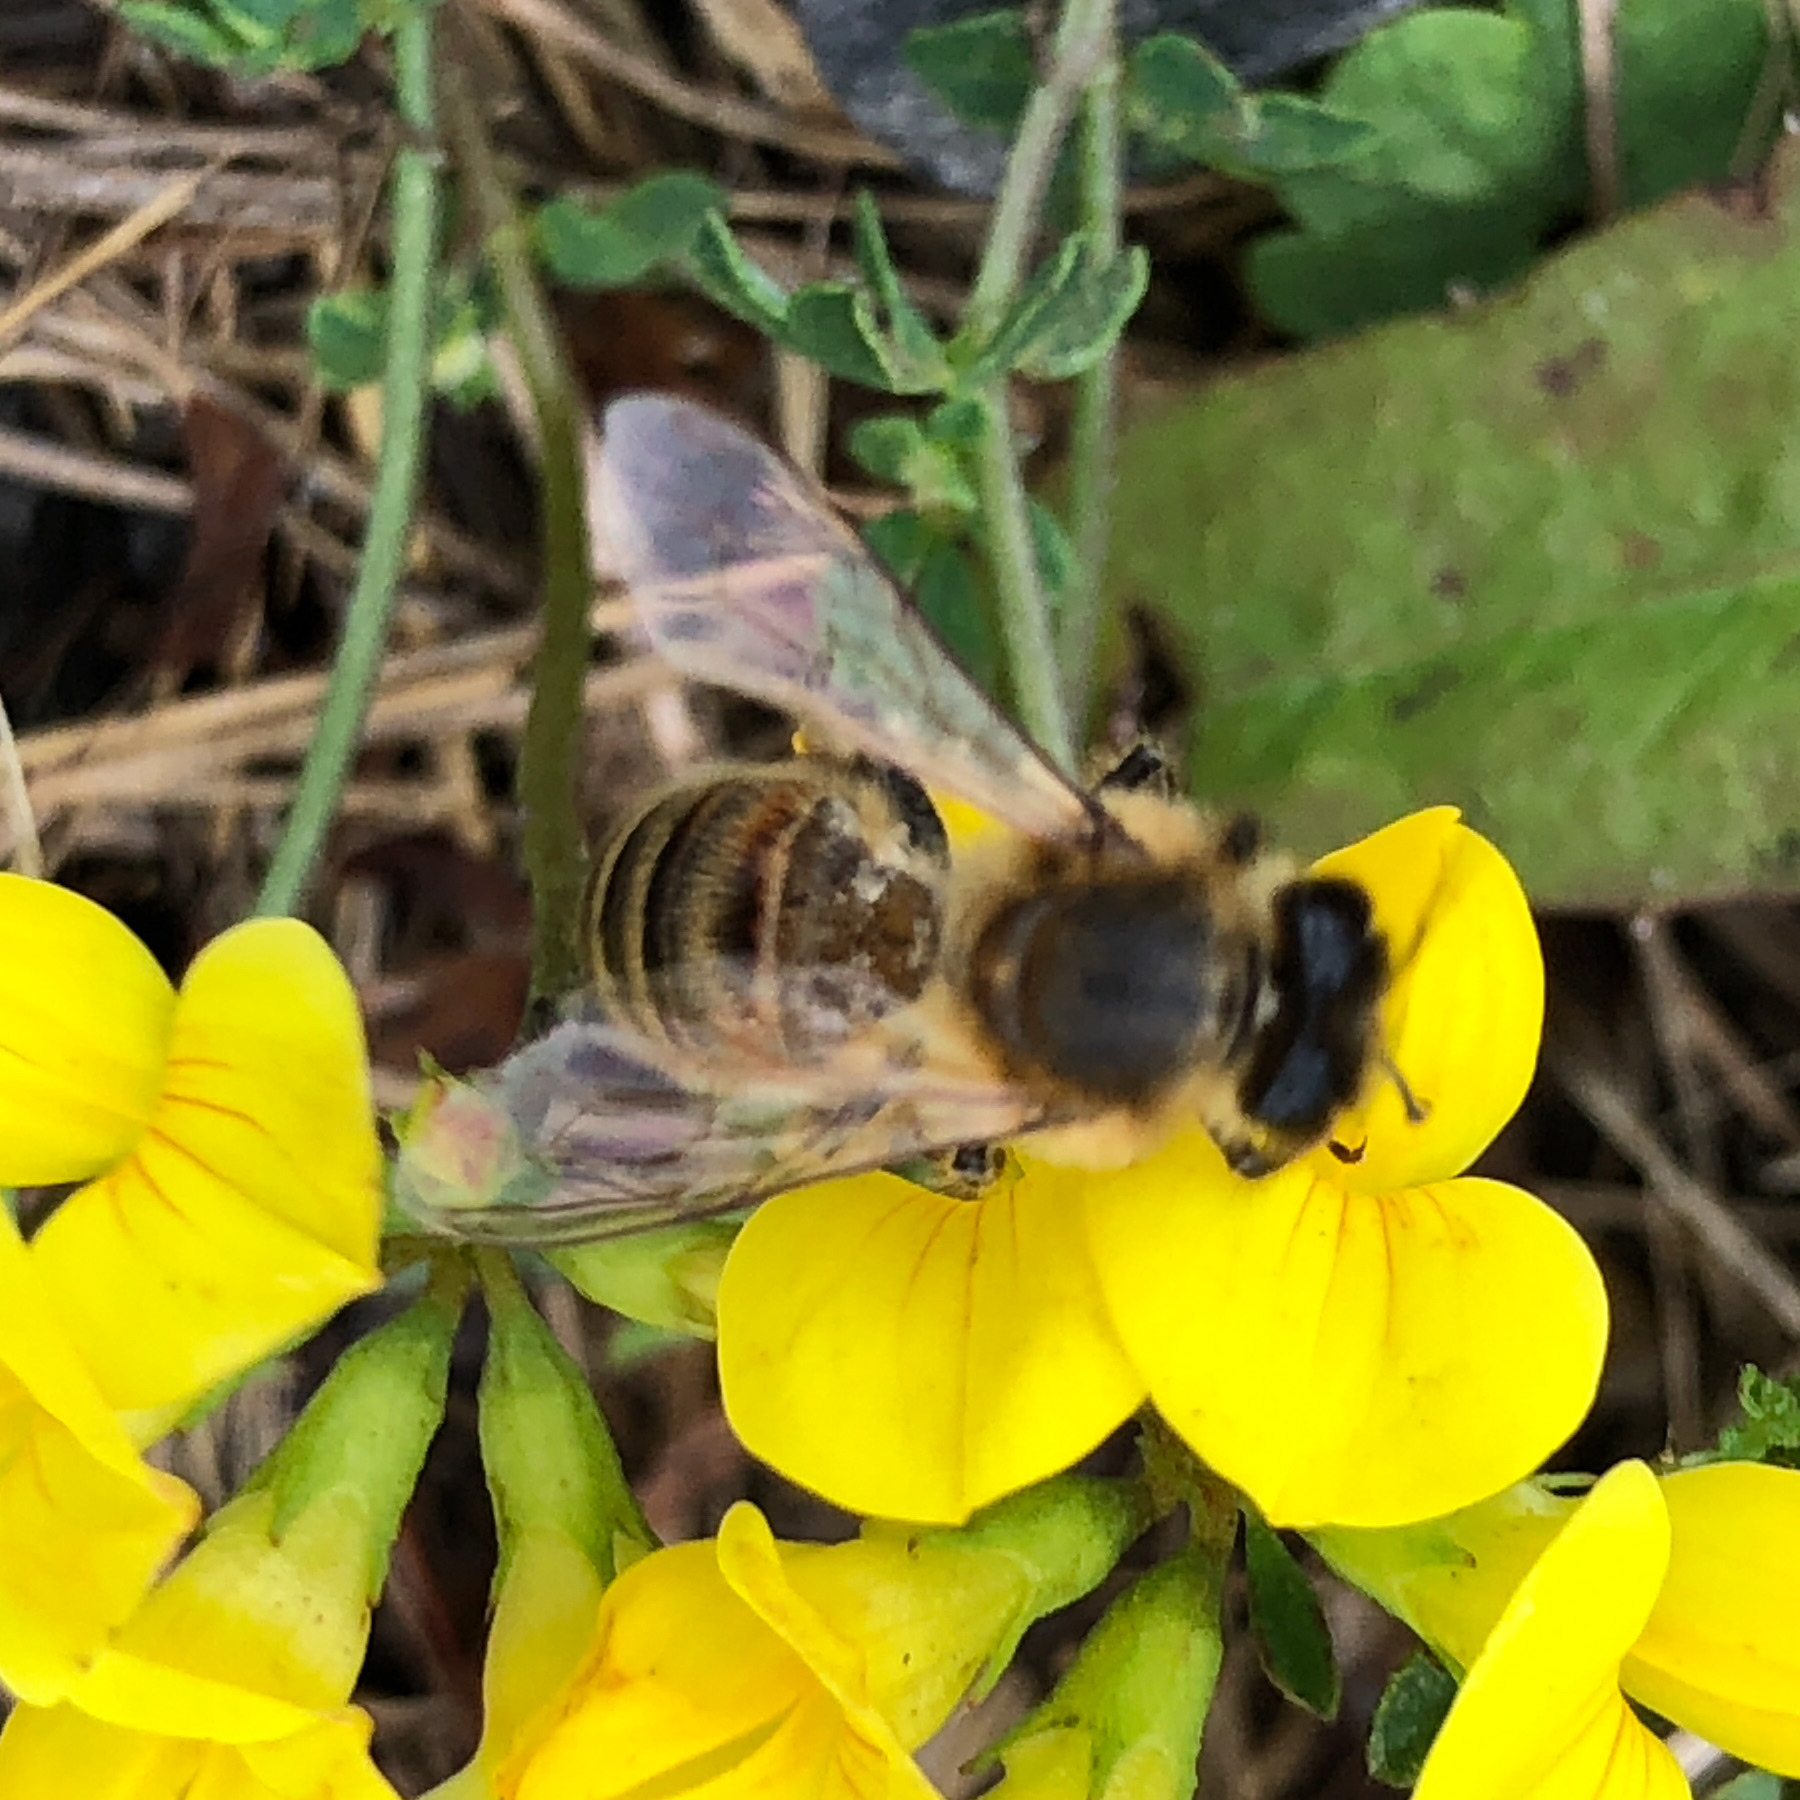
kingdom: Animalia
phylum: Arthropoda
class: Insecta
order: Hymenoptera
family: Apidae
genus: Apis
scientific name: Apis mellifera
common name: Honey bee
